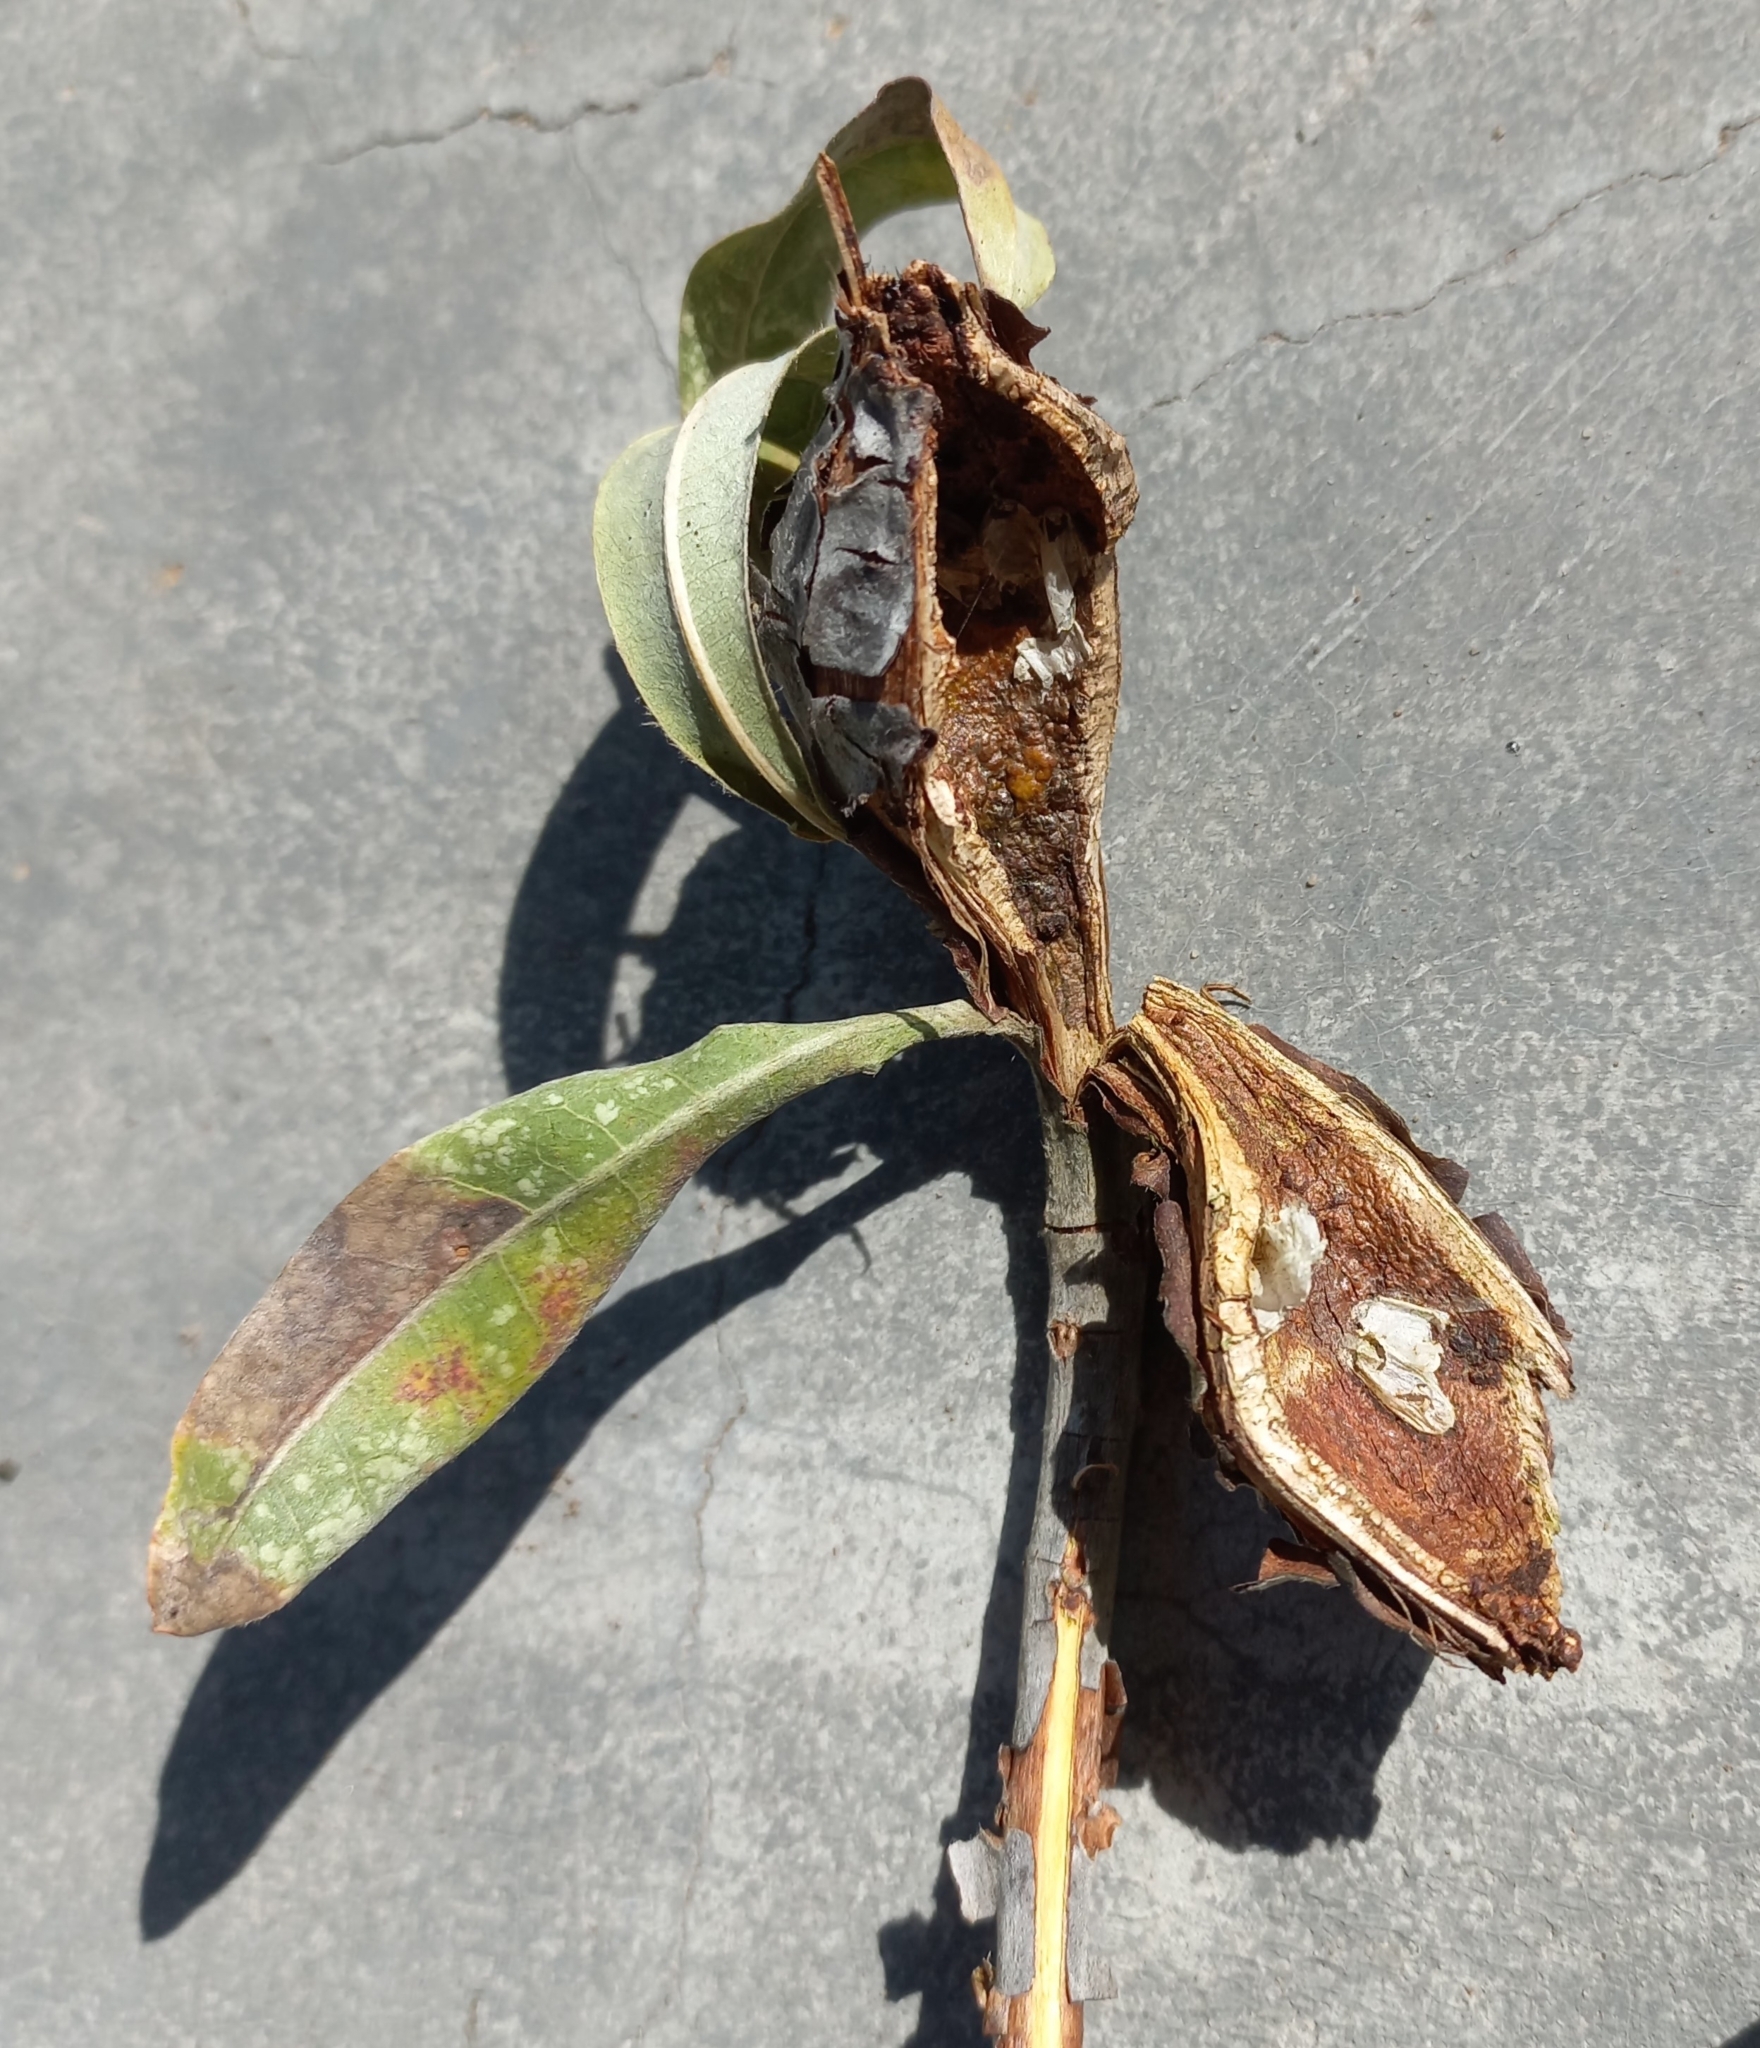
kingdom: Plantae
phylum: Tracheophyta
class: Magnoliopsida
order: Myrtales
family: Combretaceae
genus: Terminalia
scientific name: Terminalia sericea
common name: Clusterleaf
